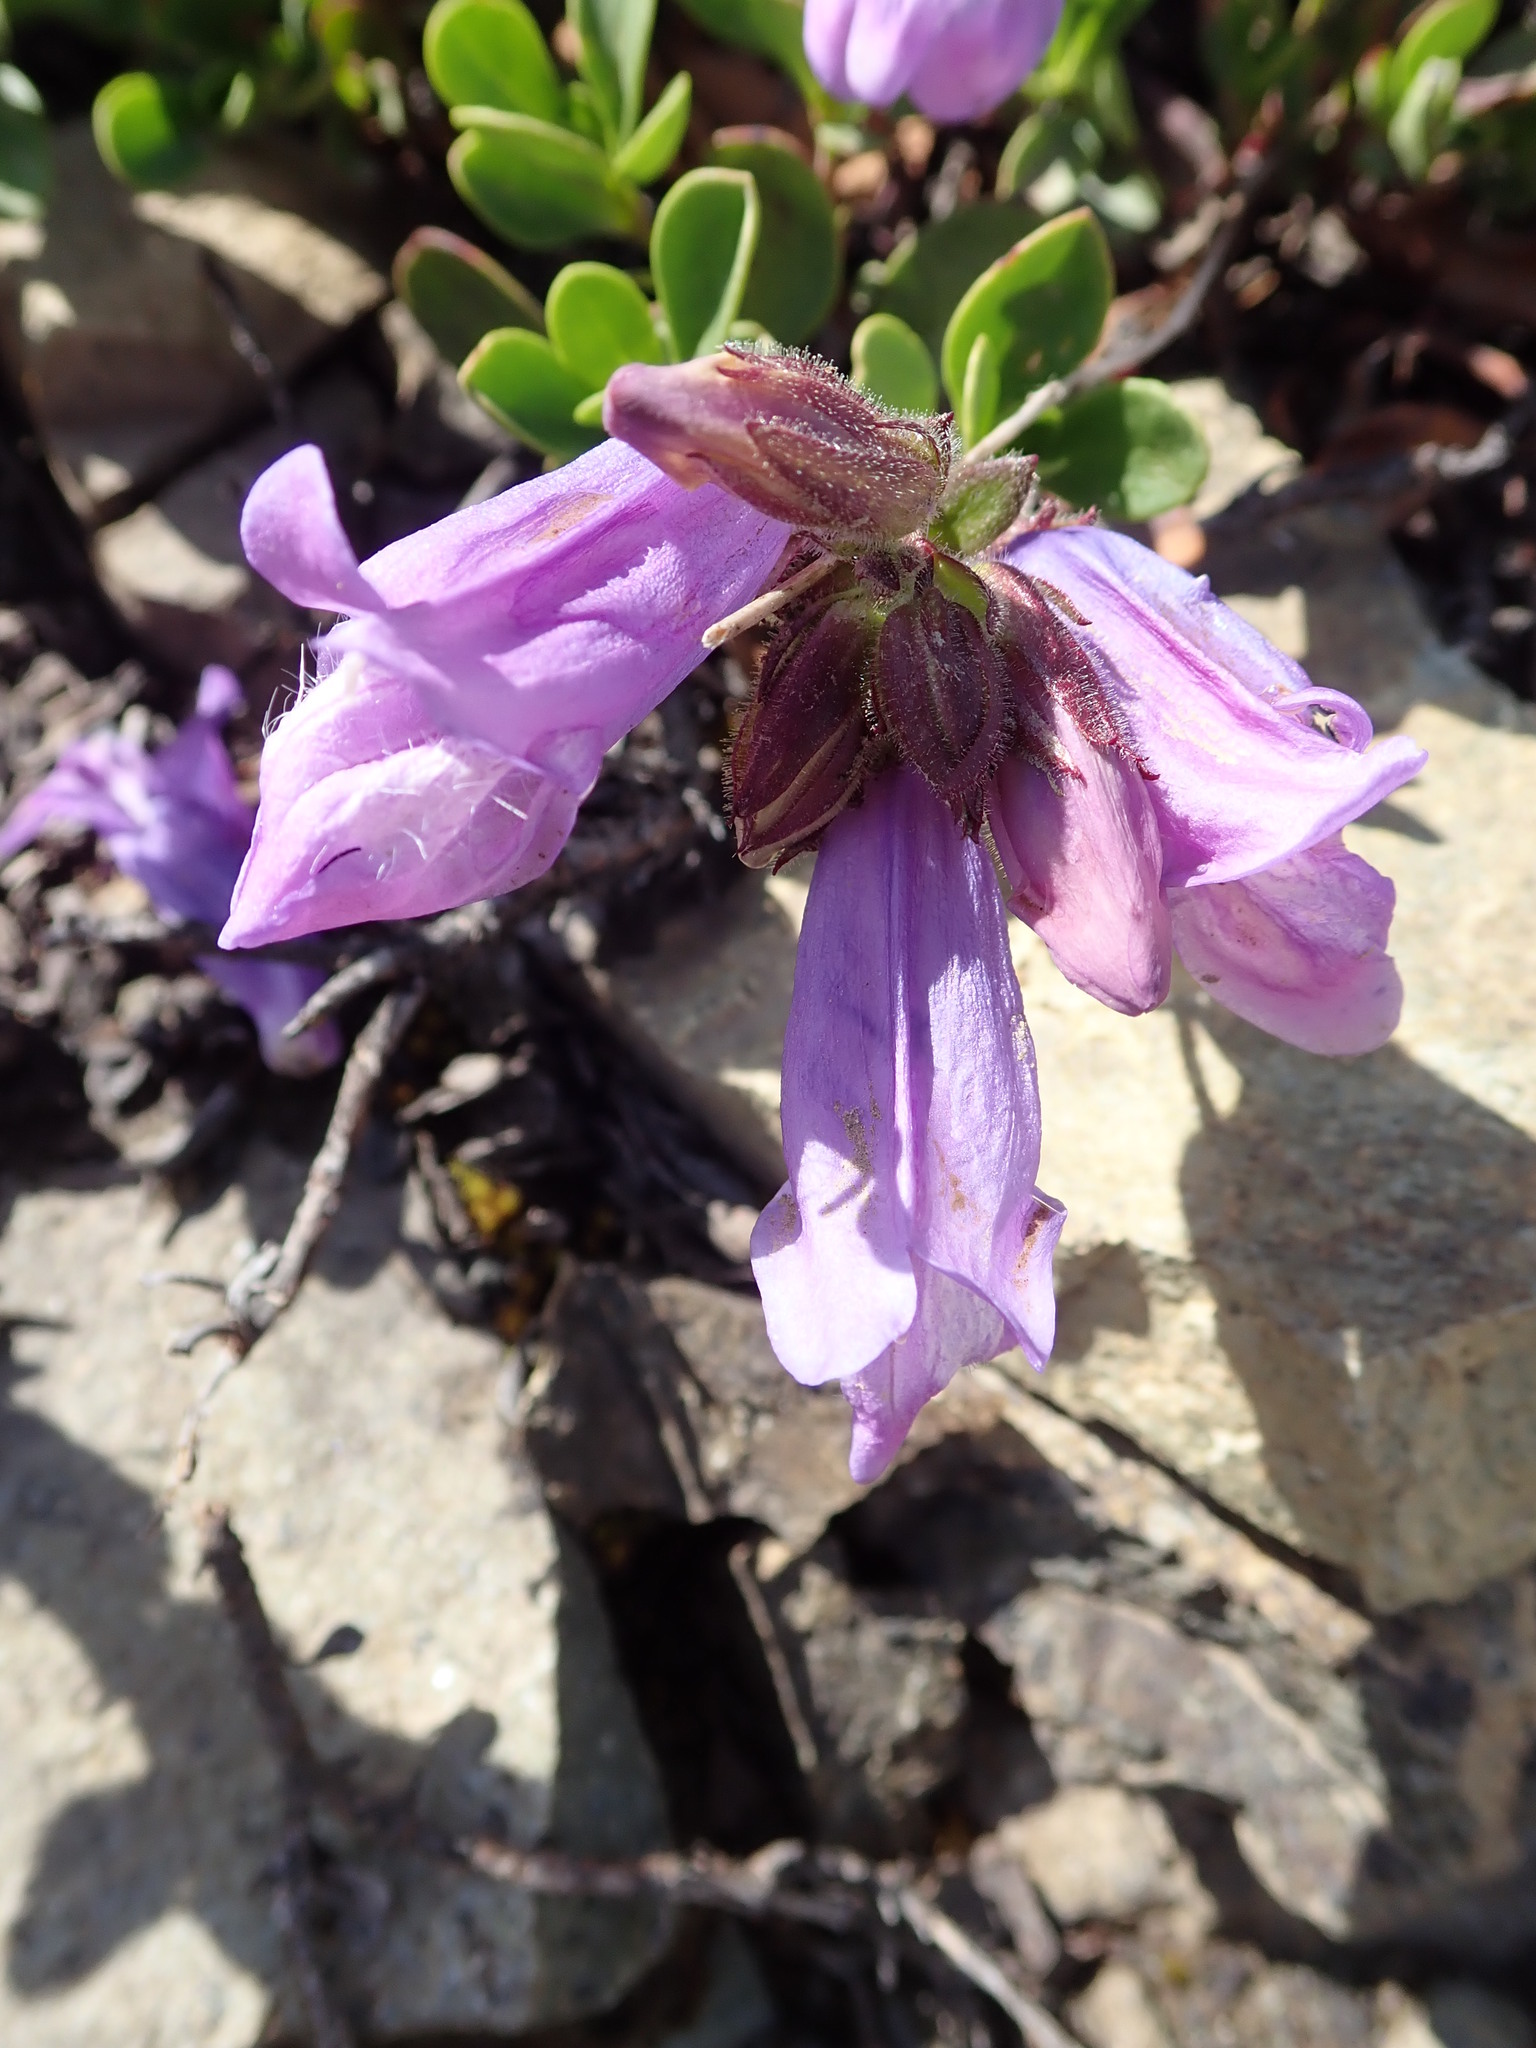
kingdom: Plantae
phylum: Tracheophyta
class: Magnoliopsida
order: Lamiales
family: Plantaginaceae
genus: Penstemon
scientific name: Penstemon davidsonii
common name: Davidson's penstemon
